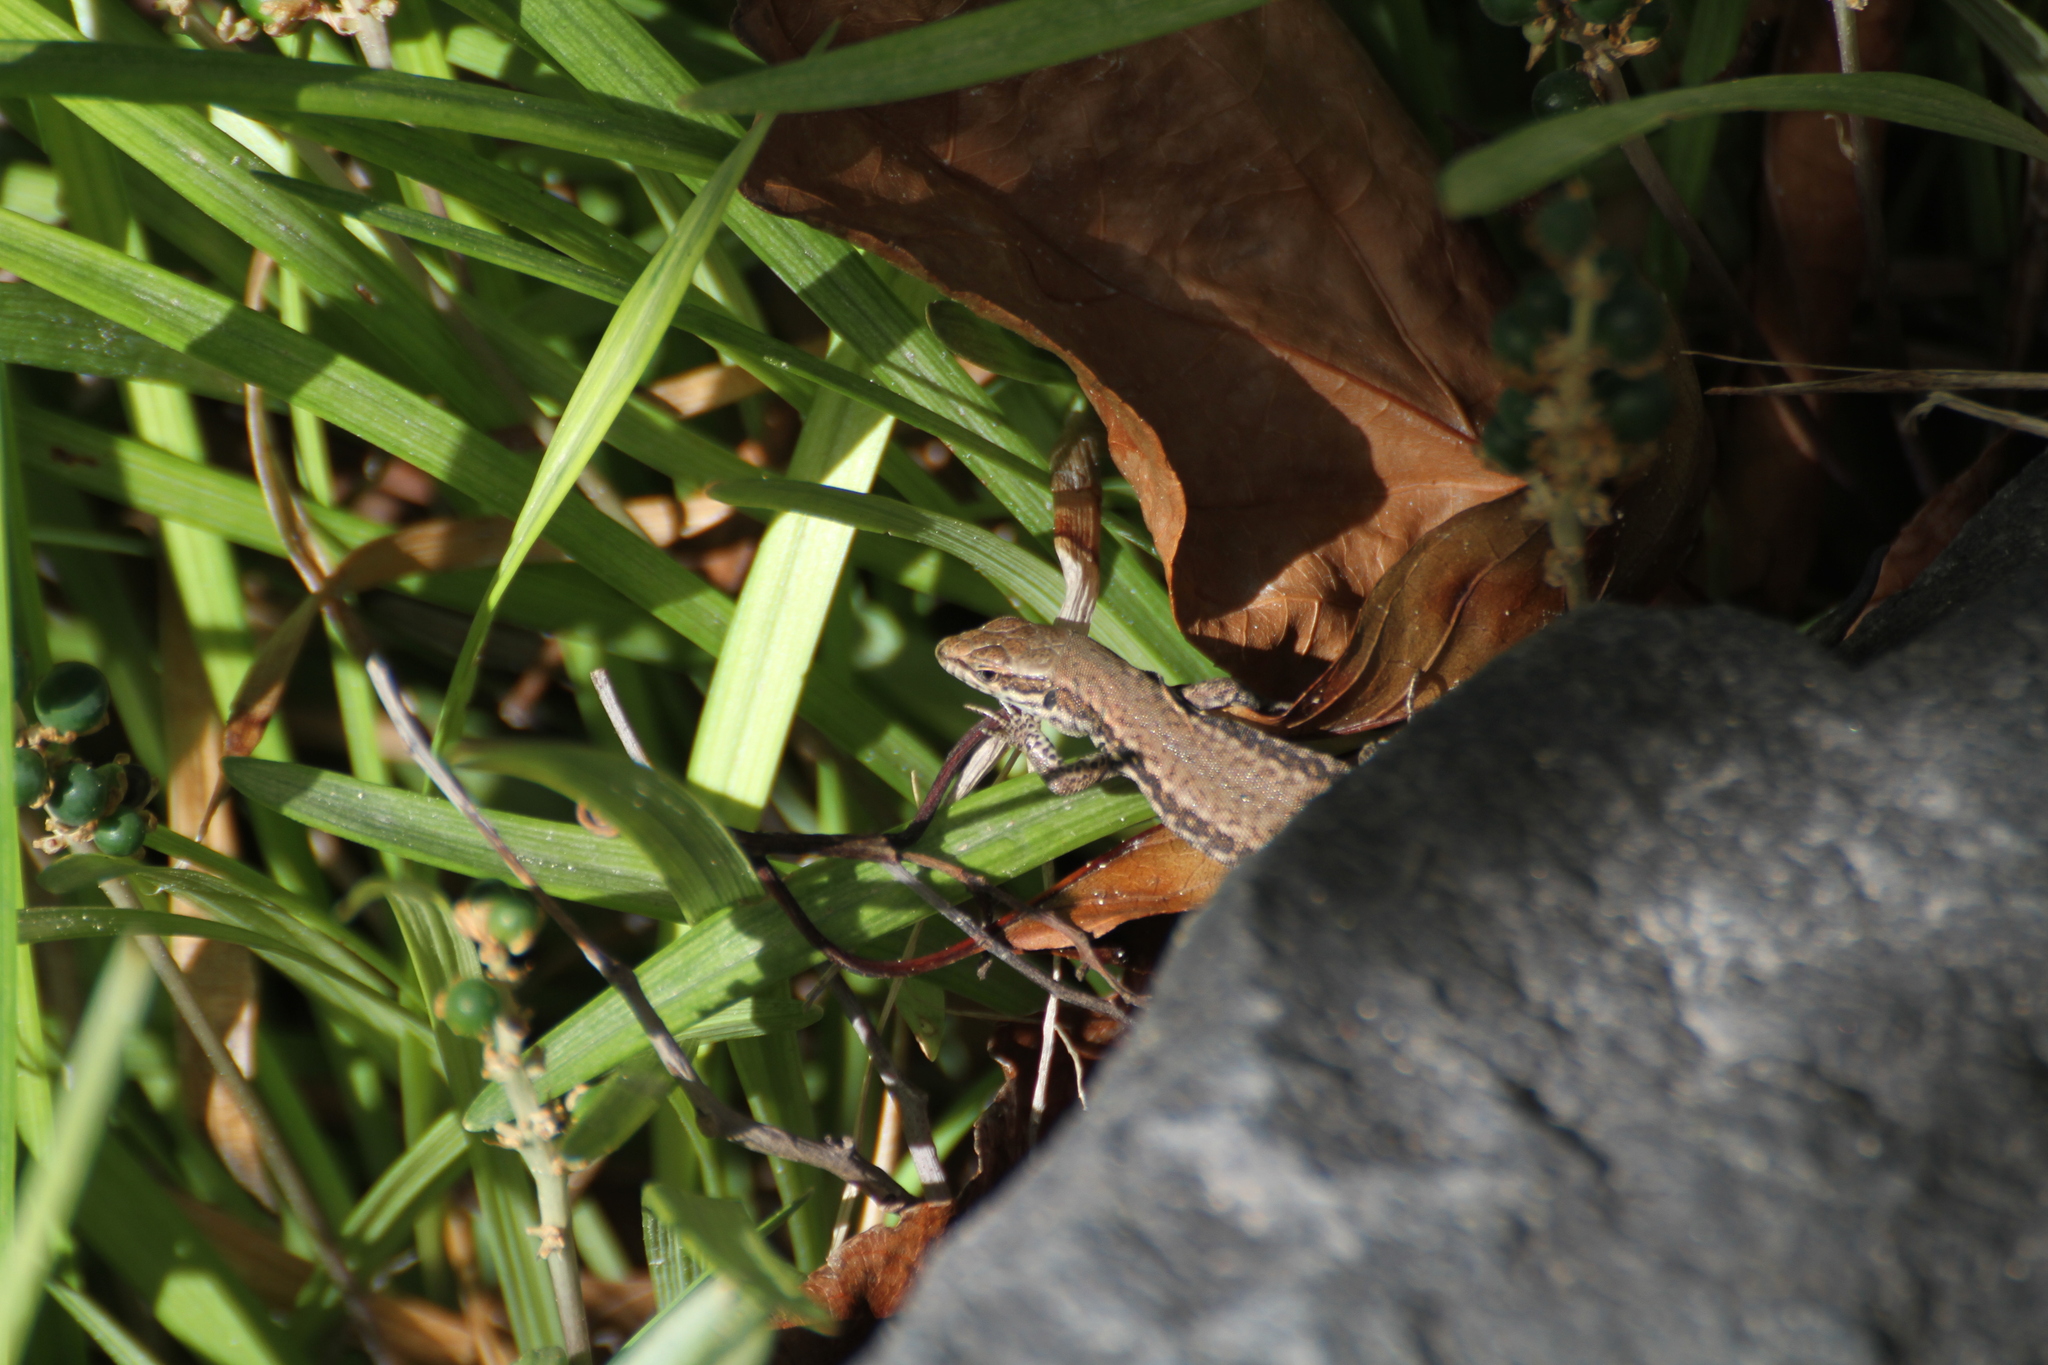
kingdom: Animalia
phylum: Chordata
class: Squamata
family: Lacertidae
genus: Podarcis
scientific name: Podarcis muralis
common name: Common wall lizard
